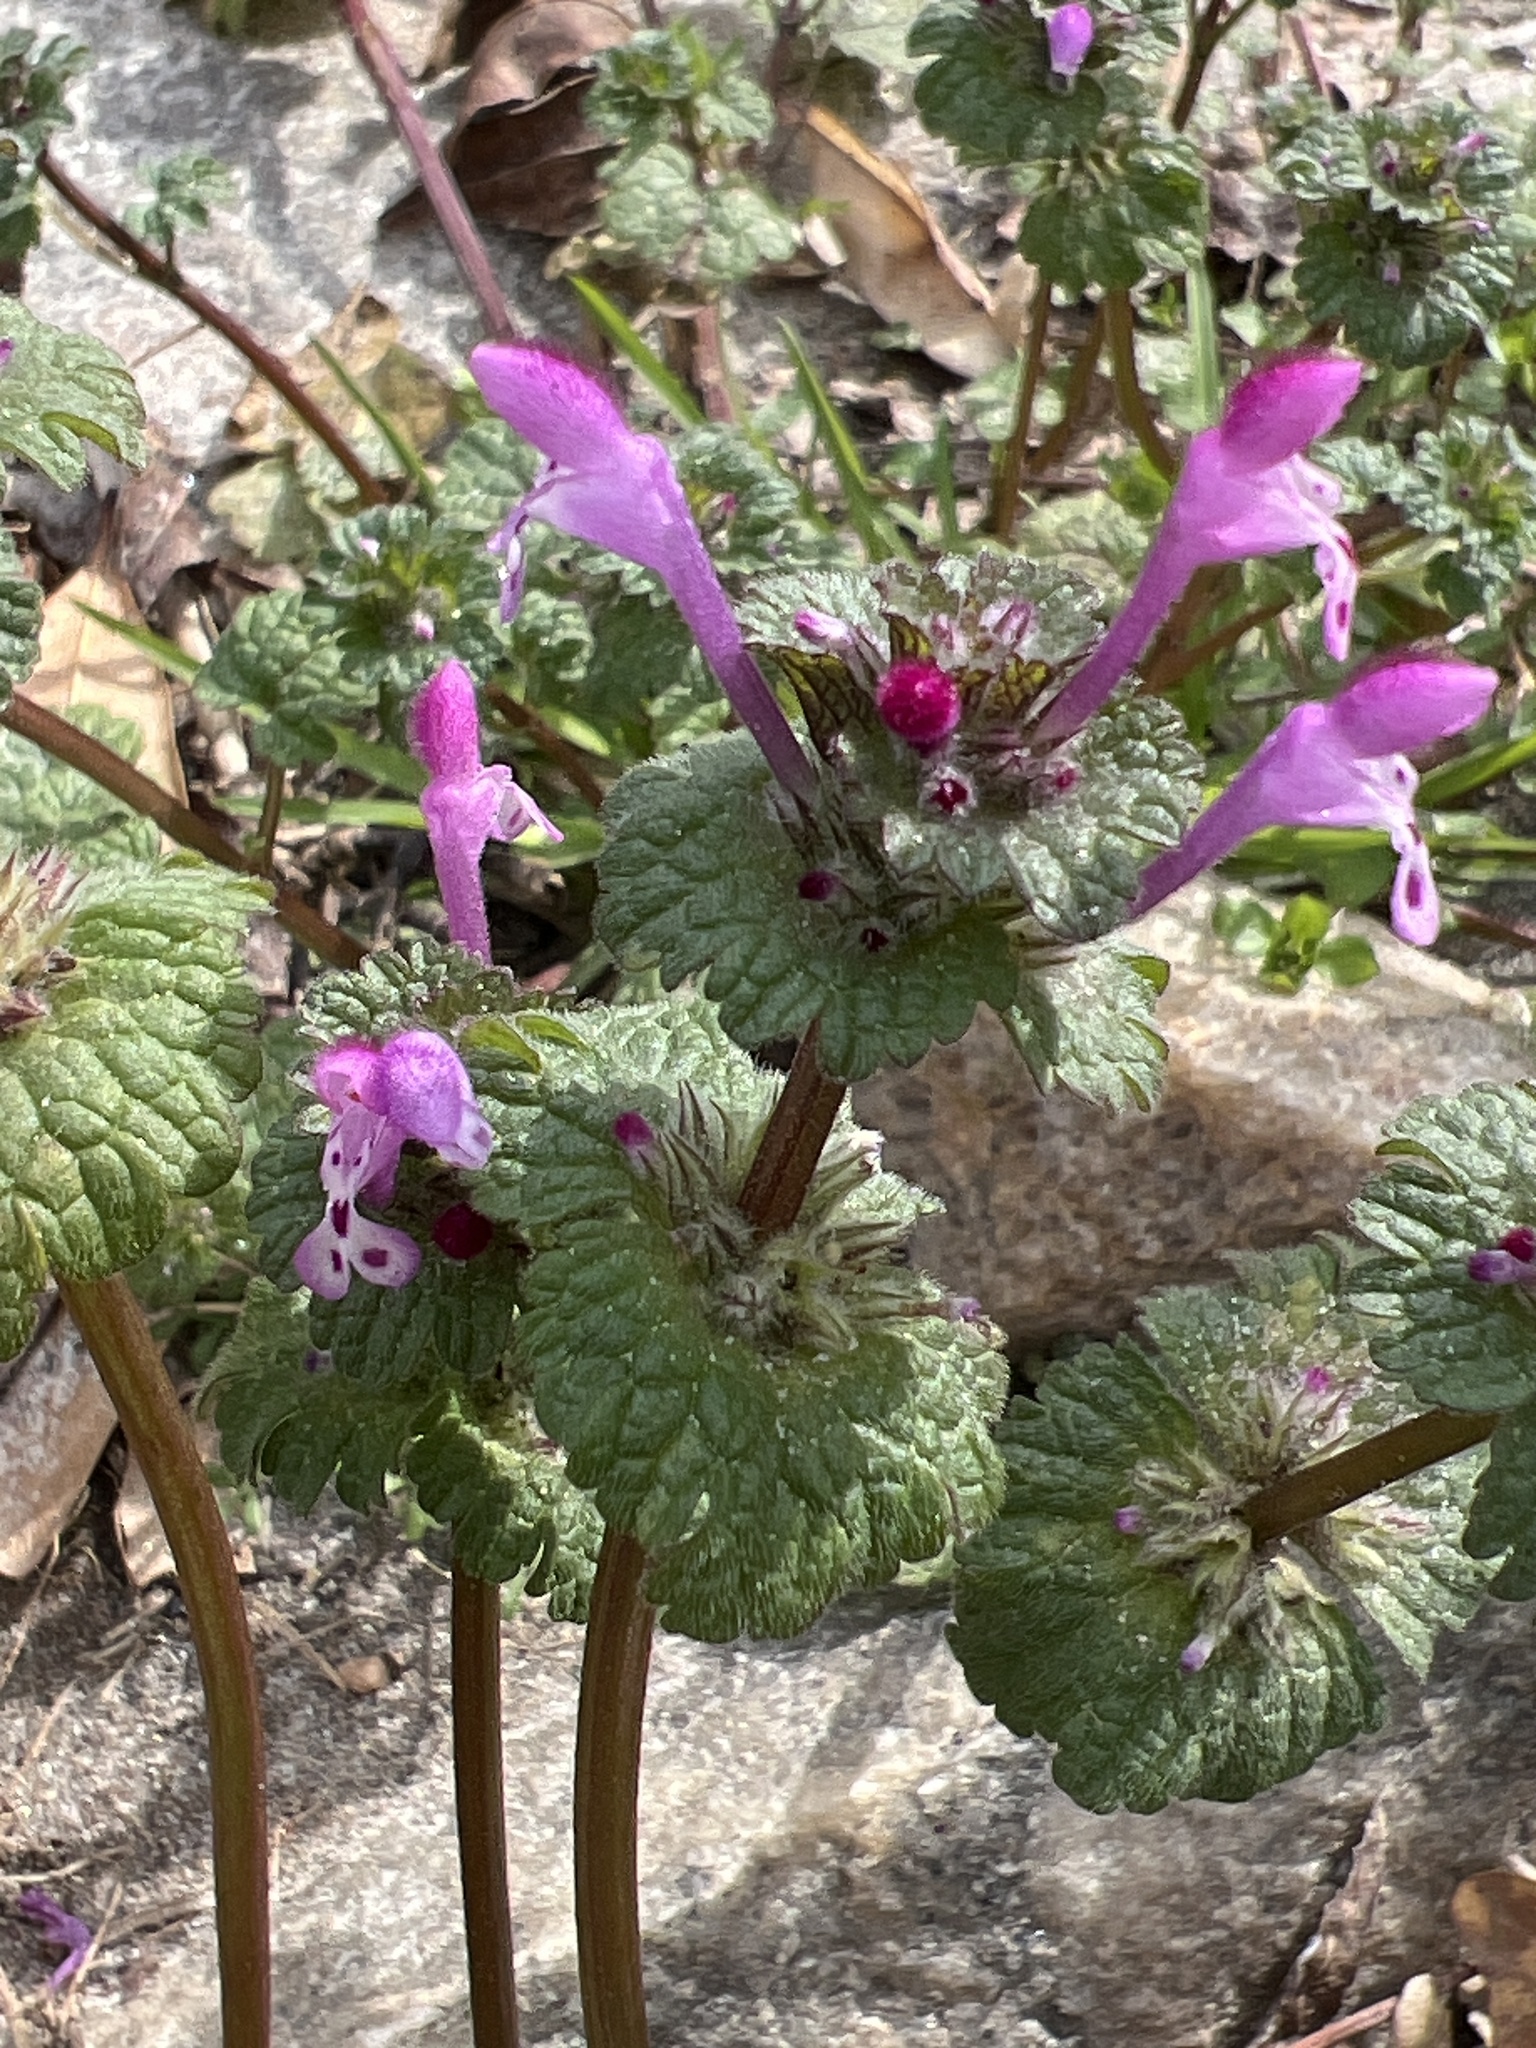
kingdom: Plantae
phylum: Tracheophyta
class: Magnoliopsida
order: Lamiales
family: Lamiaceae
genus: Lamium
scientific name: Lamium amplexicaule
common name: Henbit dead-nettle
